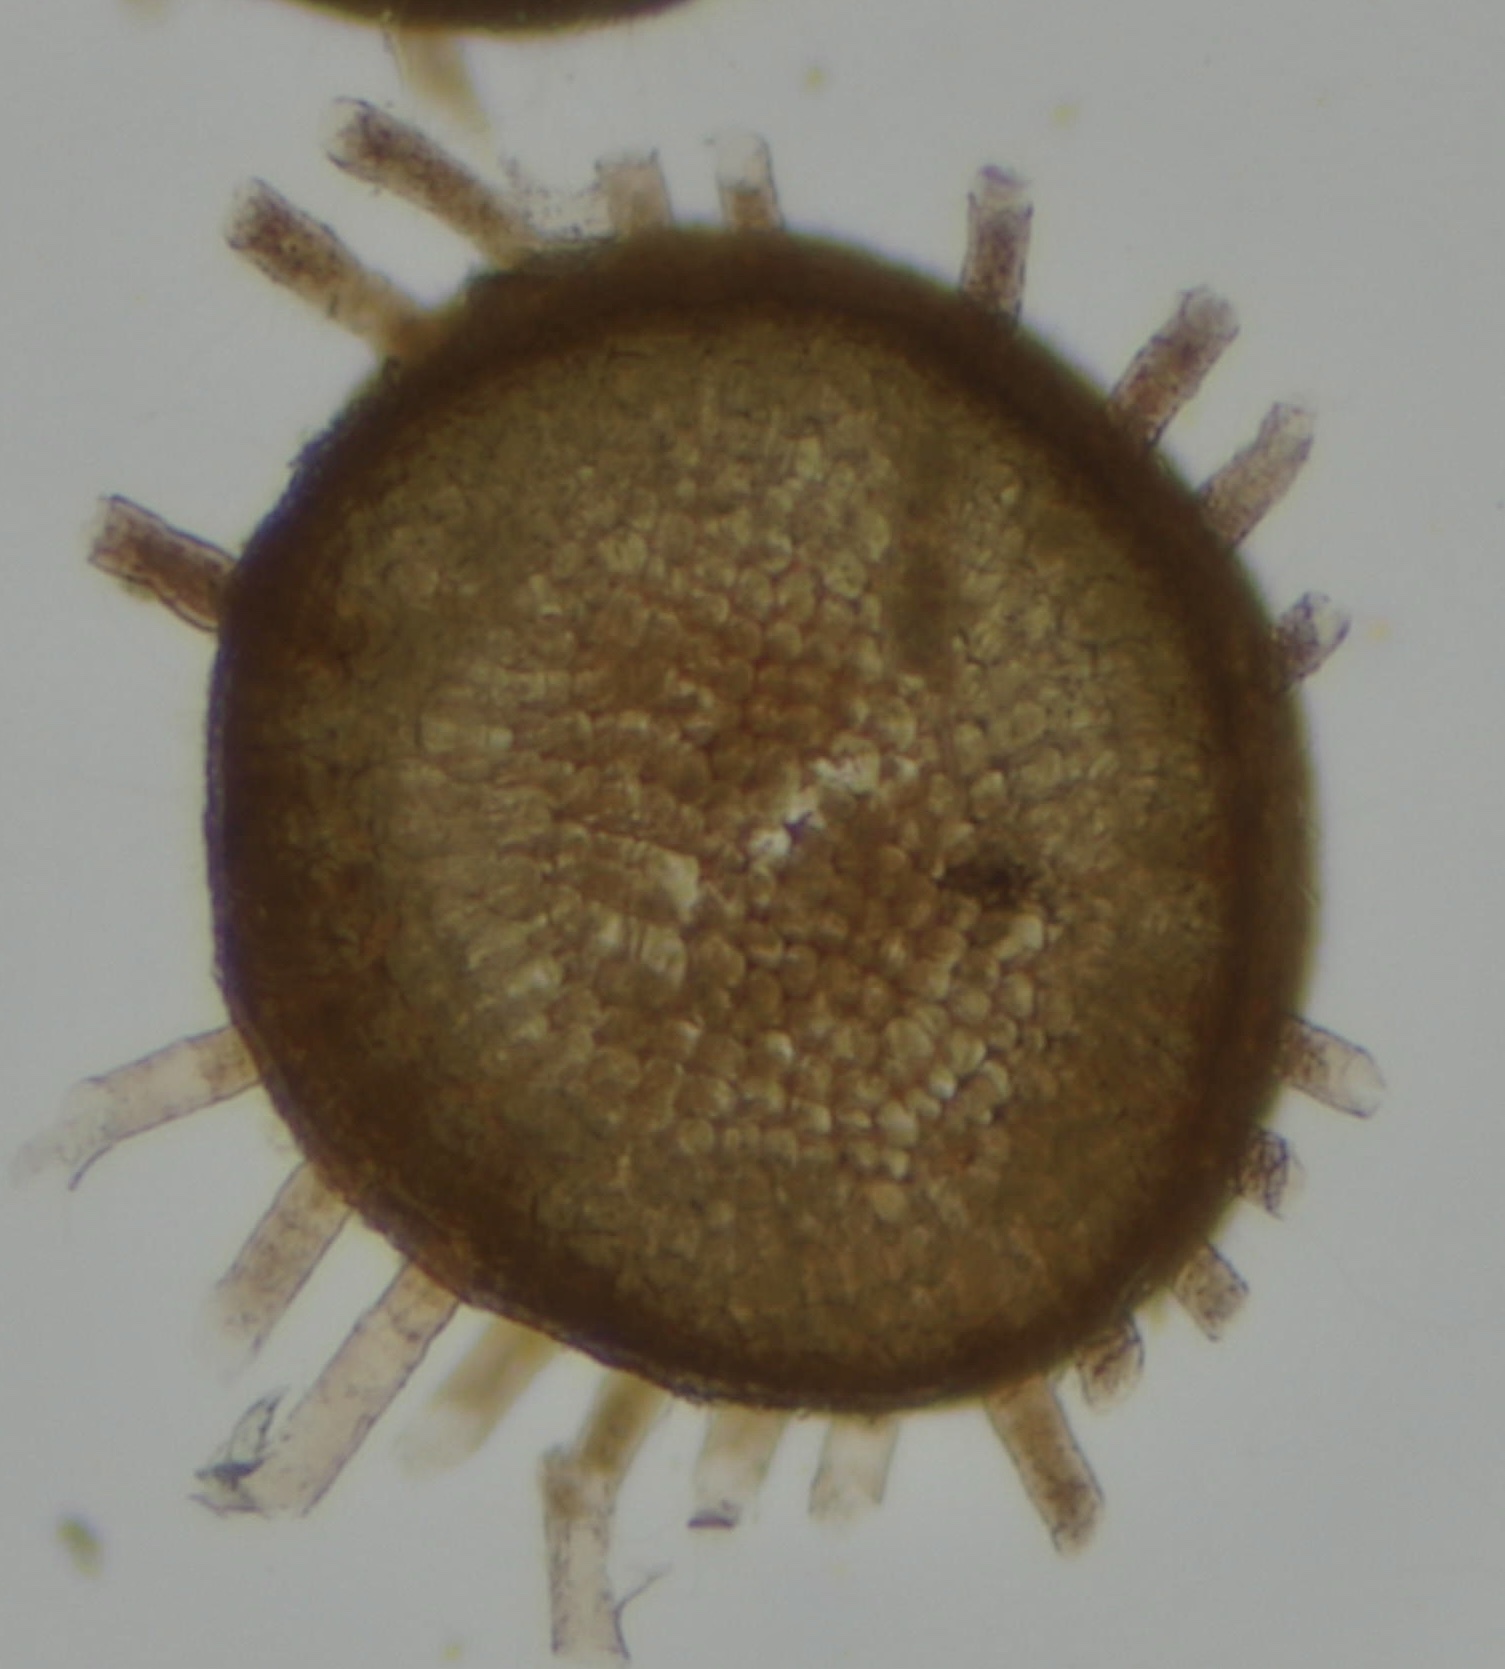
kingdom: Chromista
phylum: Ochrophyta
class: Phaeophyceae
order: Sphacelariales
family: Cladostephaceae
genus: Cladostephus
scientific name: Cladostephus spongiosus
